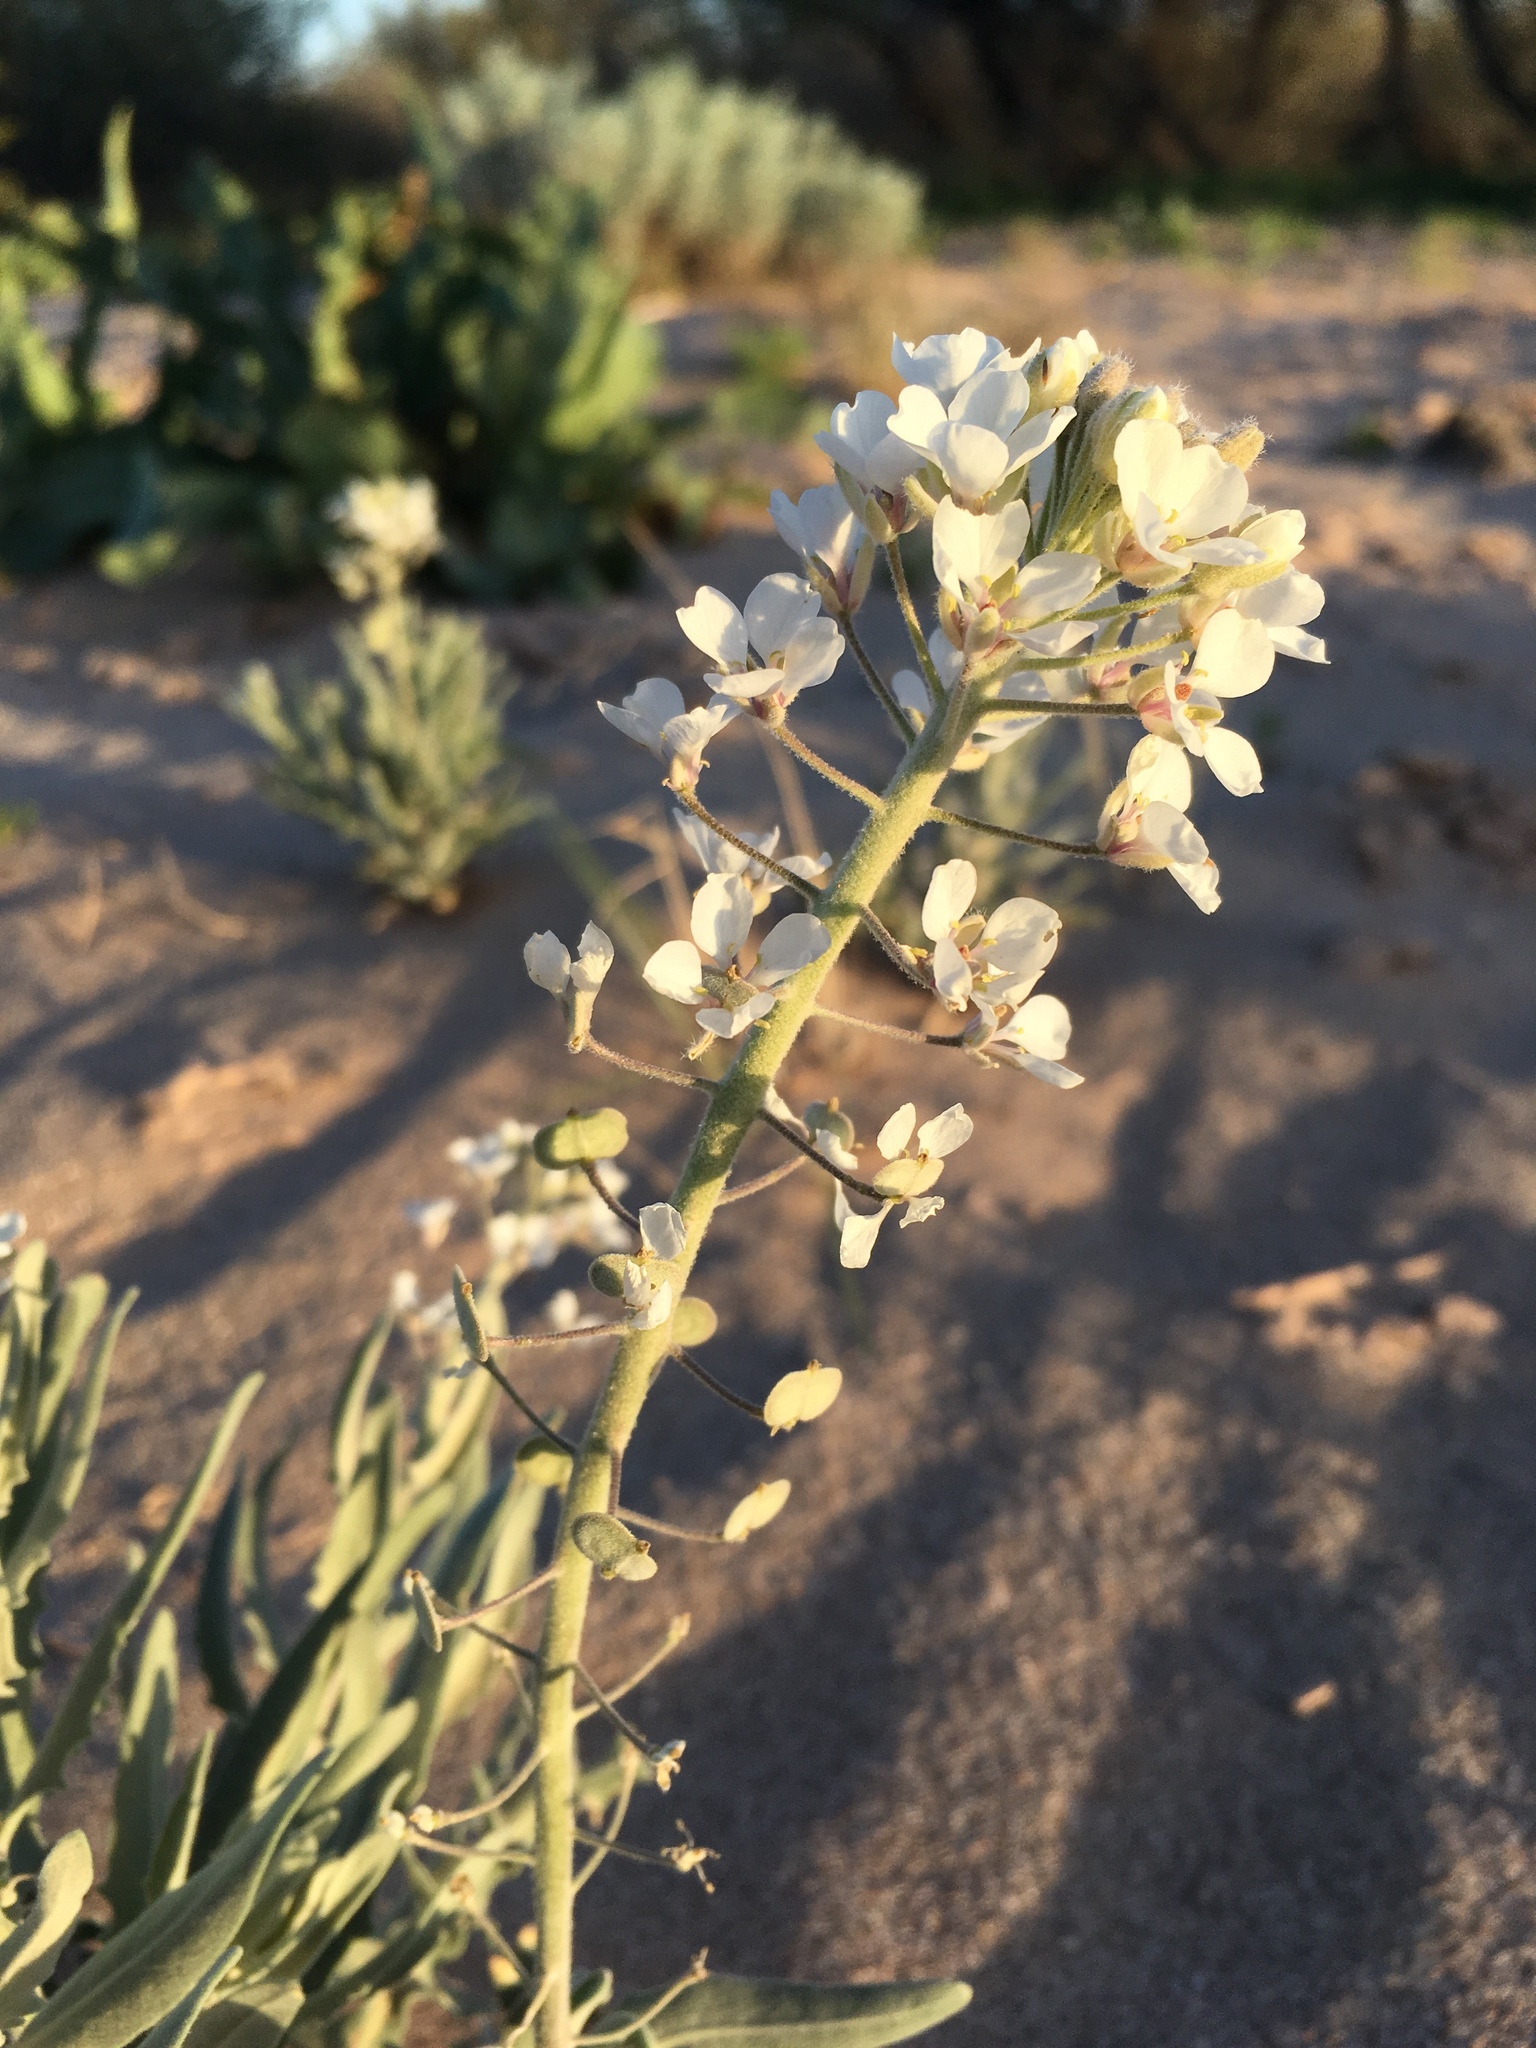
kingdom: Plantae
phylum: Tracheophyta
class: Magnoliopsida
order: Brassicales
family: Brassicaceae
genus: Dimorphocarpa
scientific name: Dimorphocarpa wislizenii
